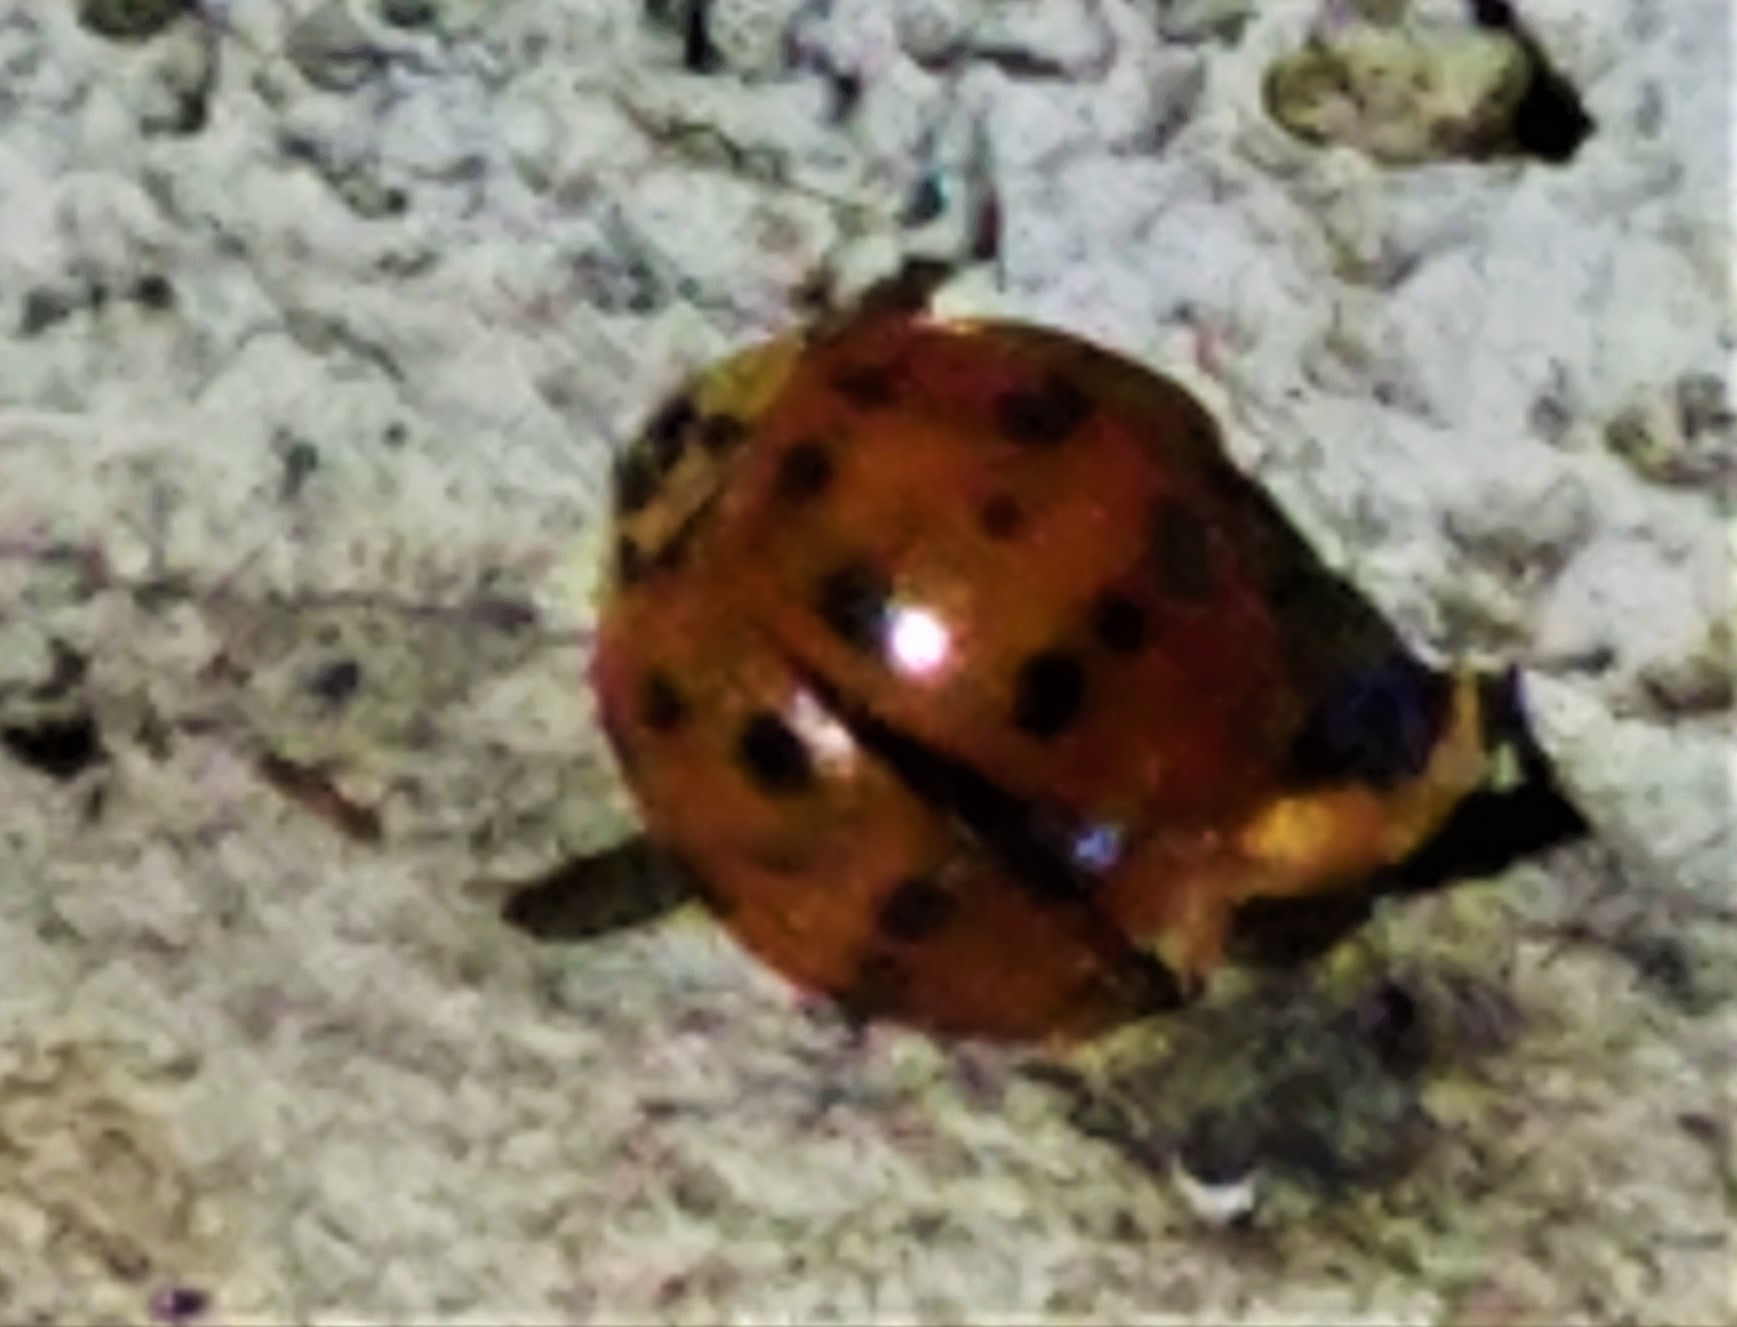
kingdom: Animalia
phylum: Arthropoda
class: Insecta
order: Coleoptera
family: Coccinellidae
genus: Harmonia
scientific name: Harmonia axyridis
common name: Harlequin ladybird
